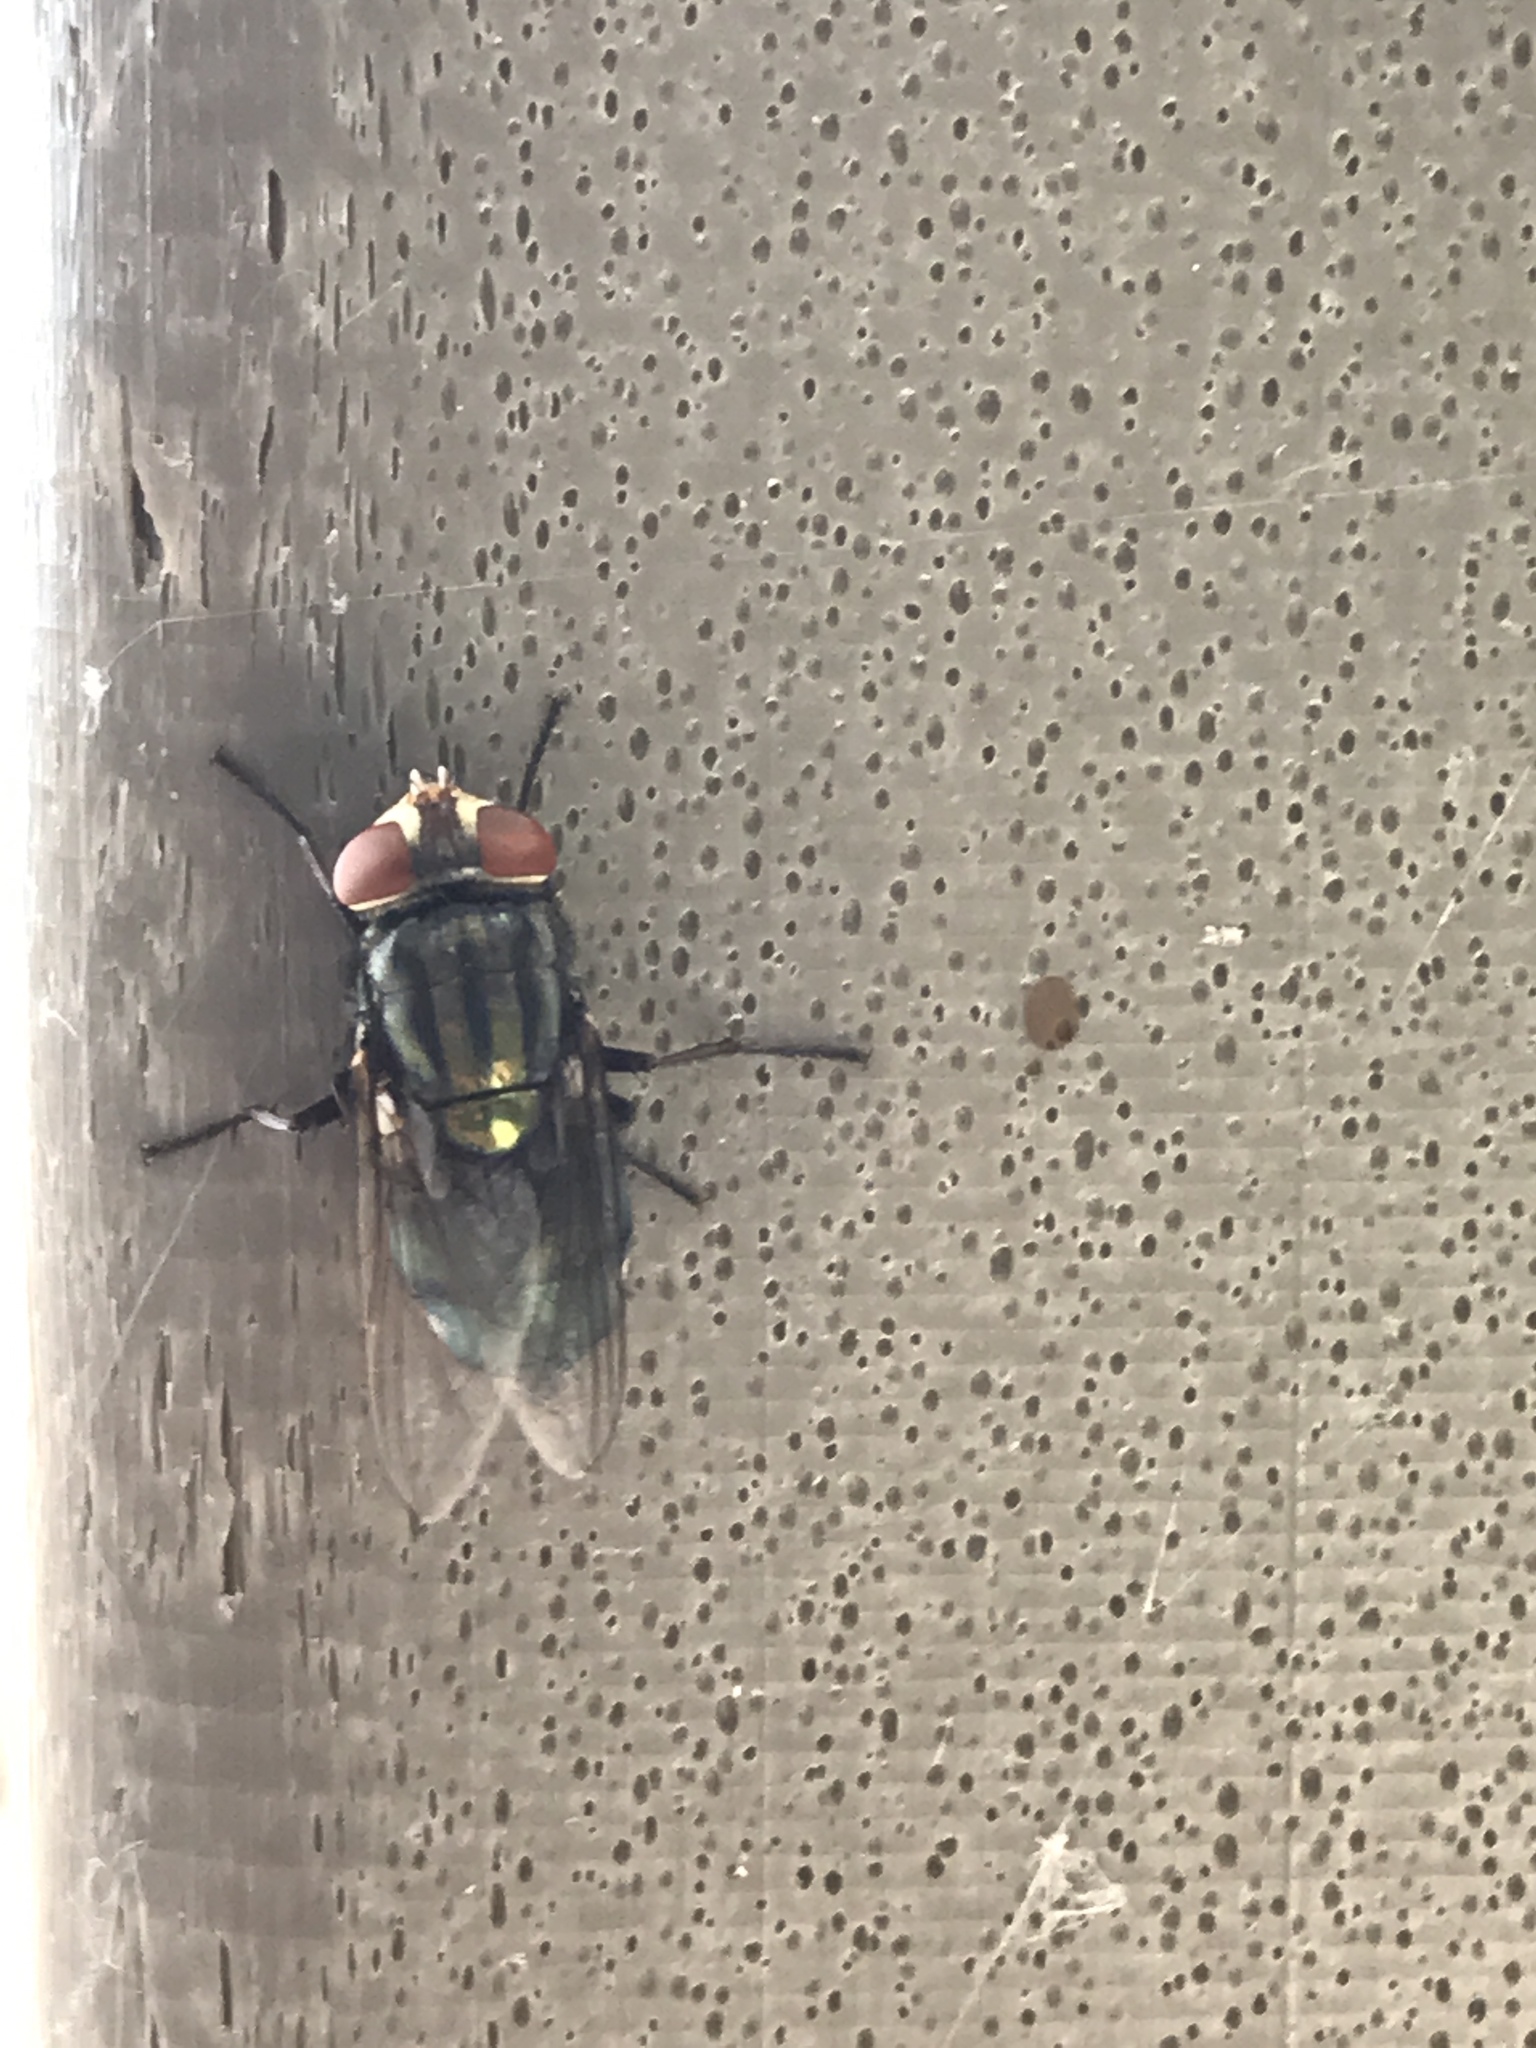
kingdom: Animalia
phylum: Arthropoda
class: Insecta
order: Diptera
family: Calliphoridae
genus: Cochliomyia
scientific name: Cochliomyia macellaria
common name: Secondary screwworm
